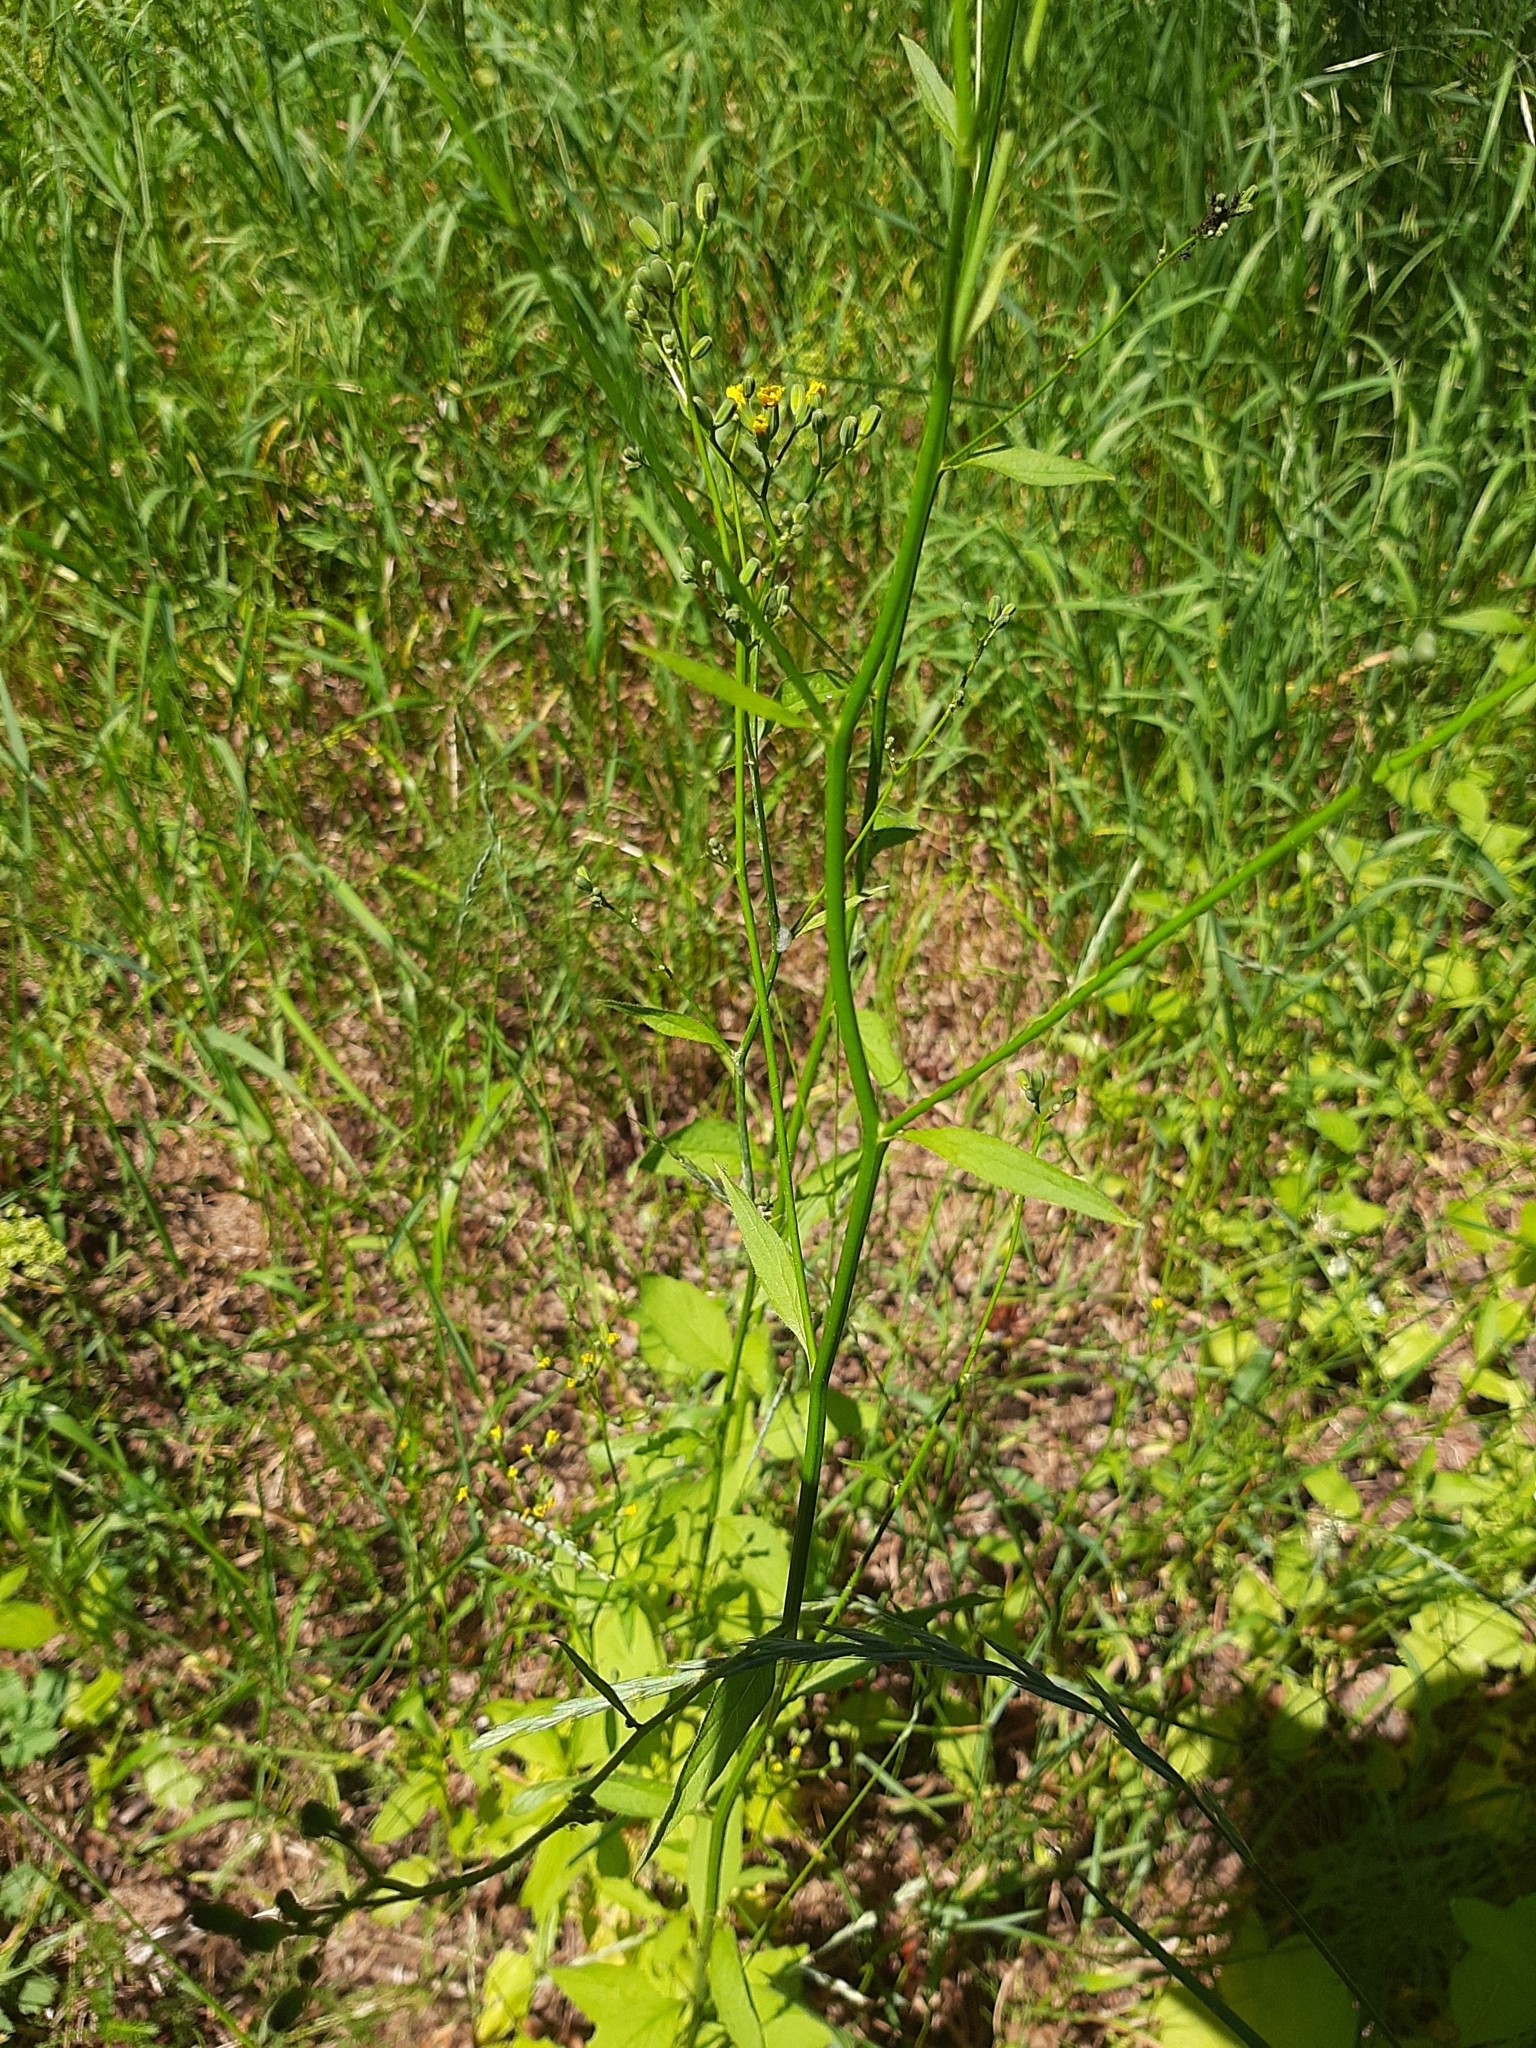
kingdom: Plantae
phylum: Tracheophyta
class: Magnoliopsida
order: Asterales
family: Asteraceae
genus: Lapsana
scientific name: Lapsana communis
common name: Nipplewort
